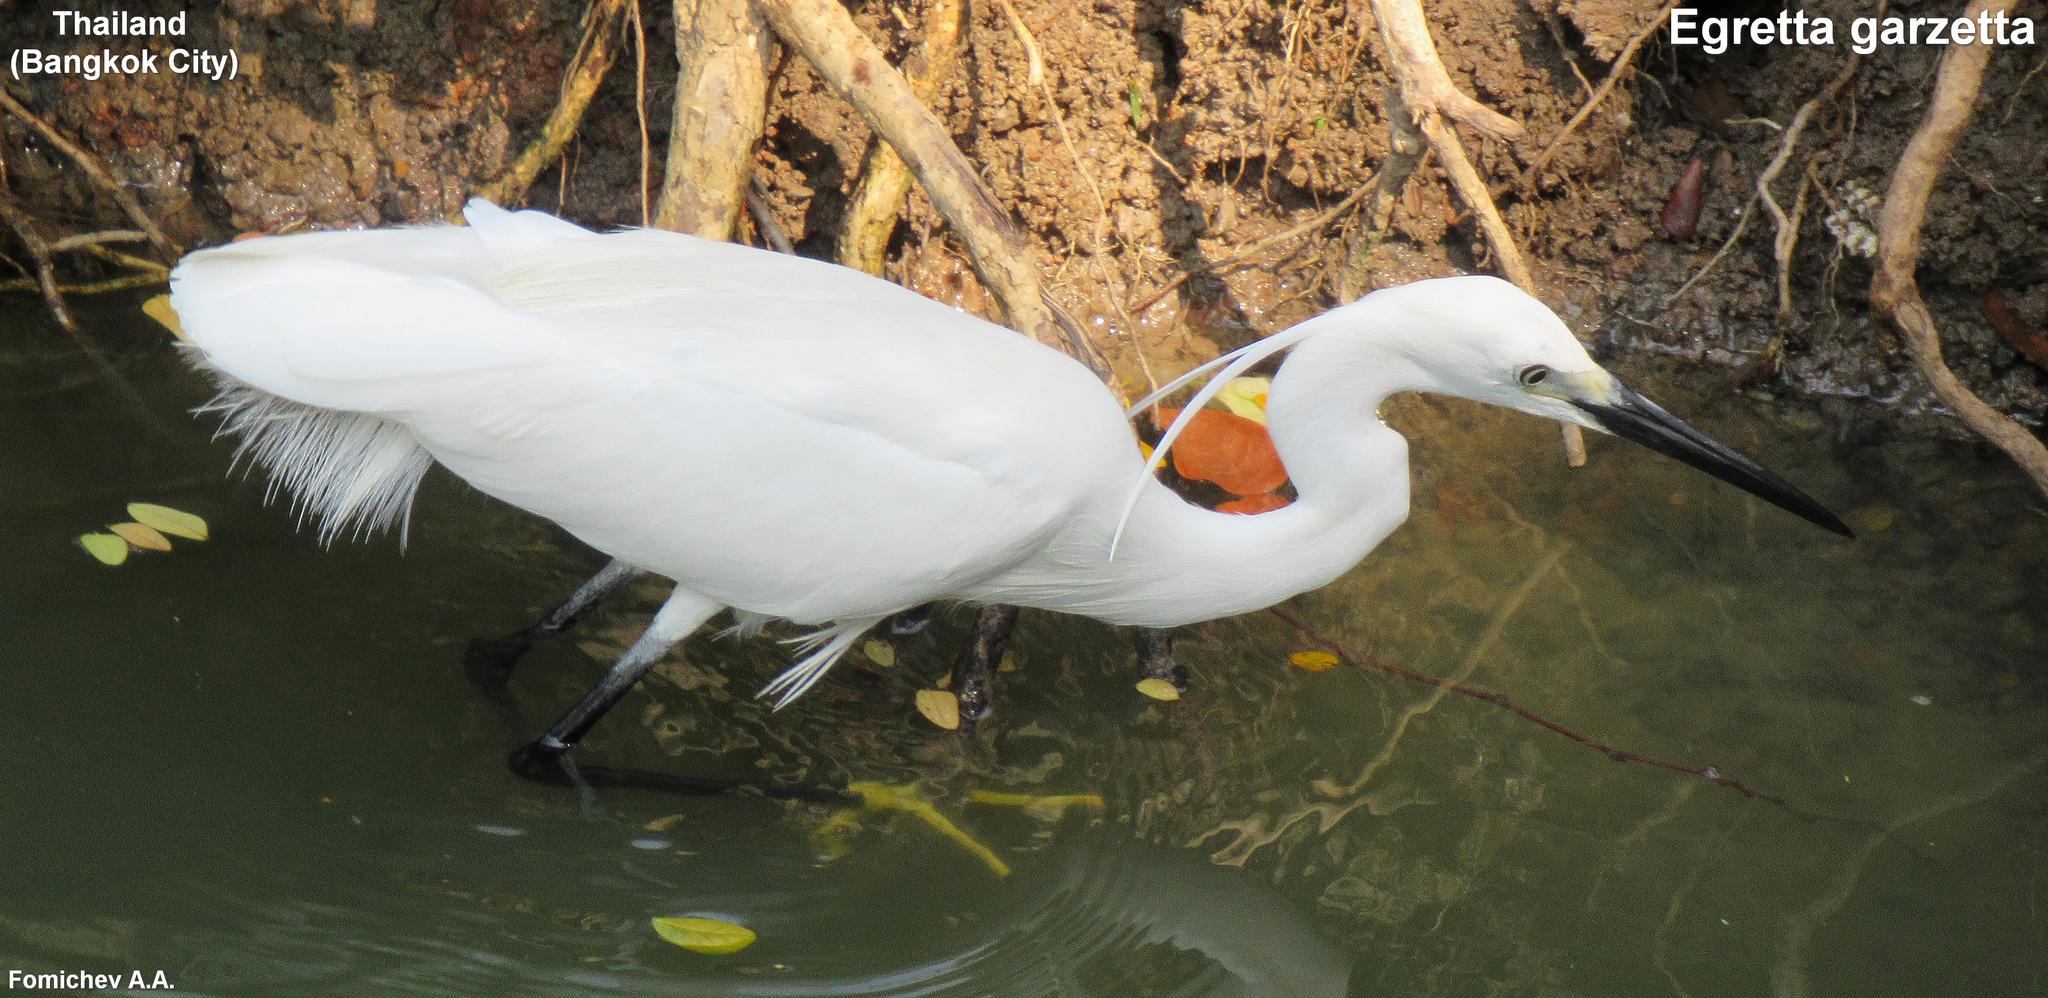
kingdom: Animalia
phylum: Chordata
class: Aves
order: Pelecaniformes
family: Ardeidae
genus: Egretta
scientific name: Egretta garzetta
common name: Little egret
